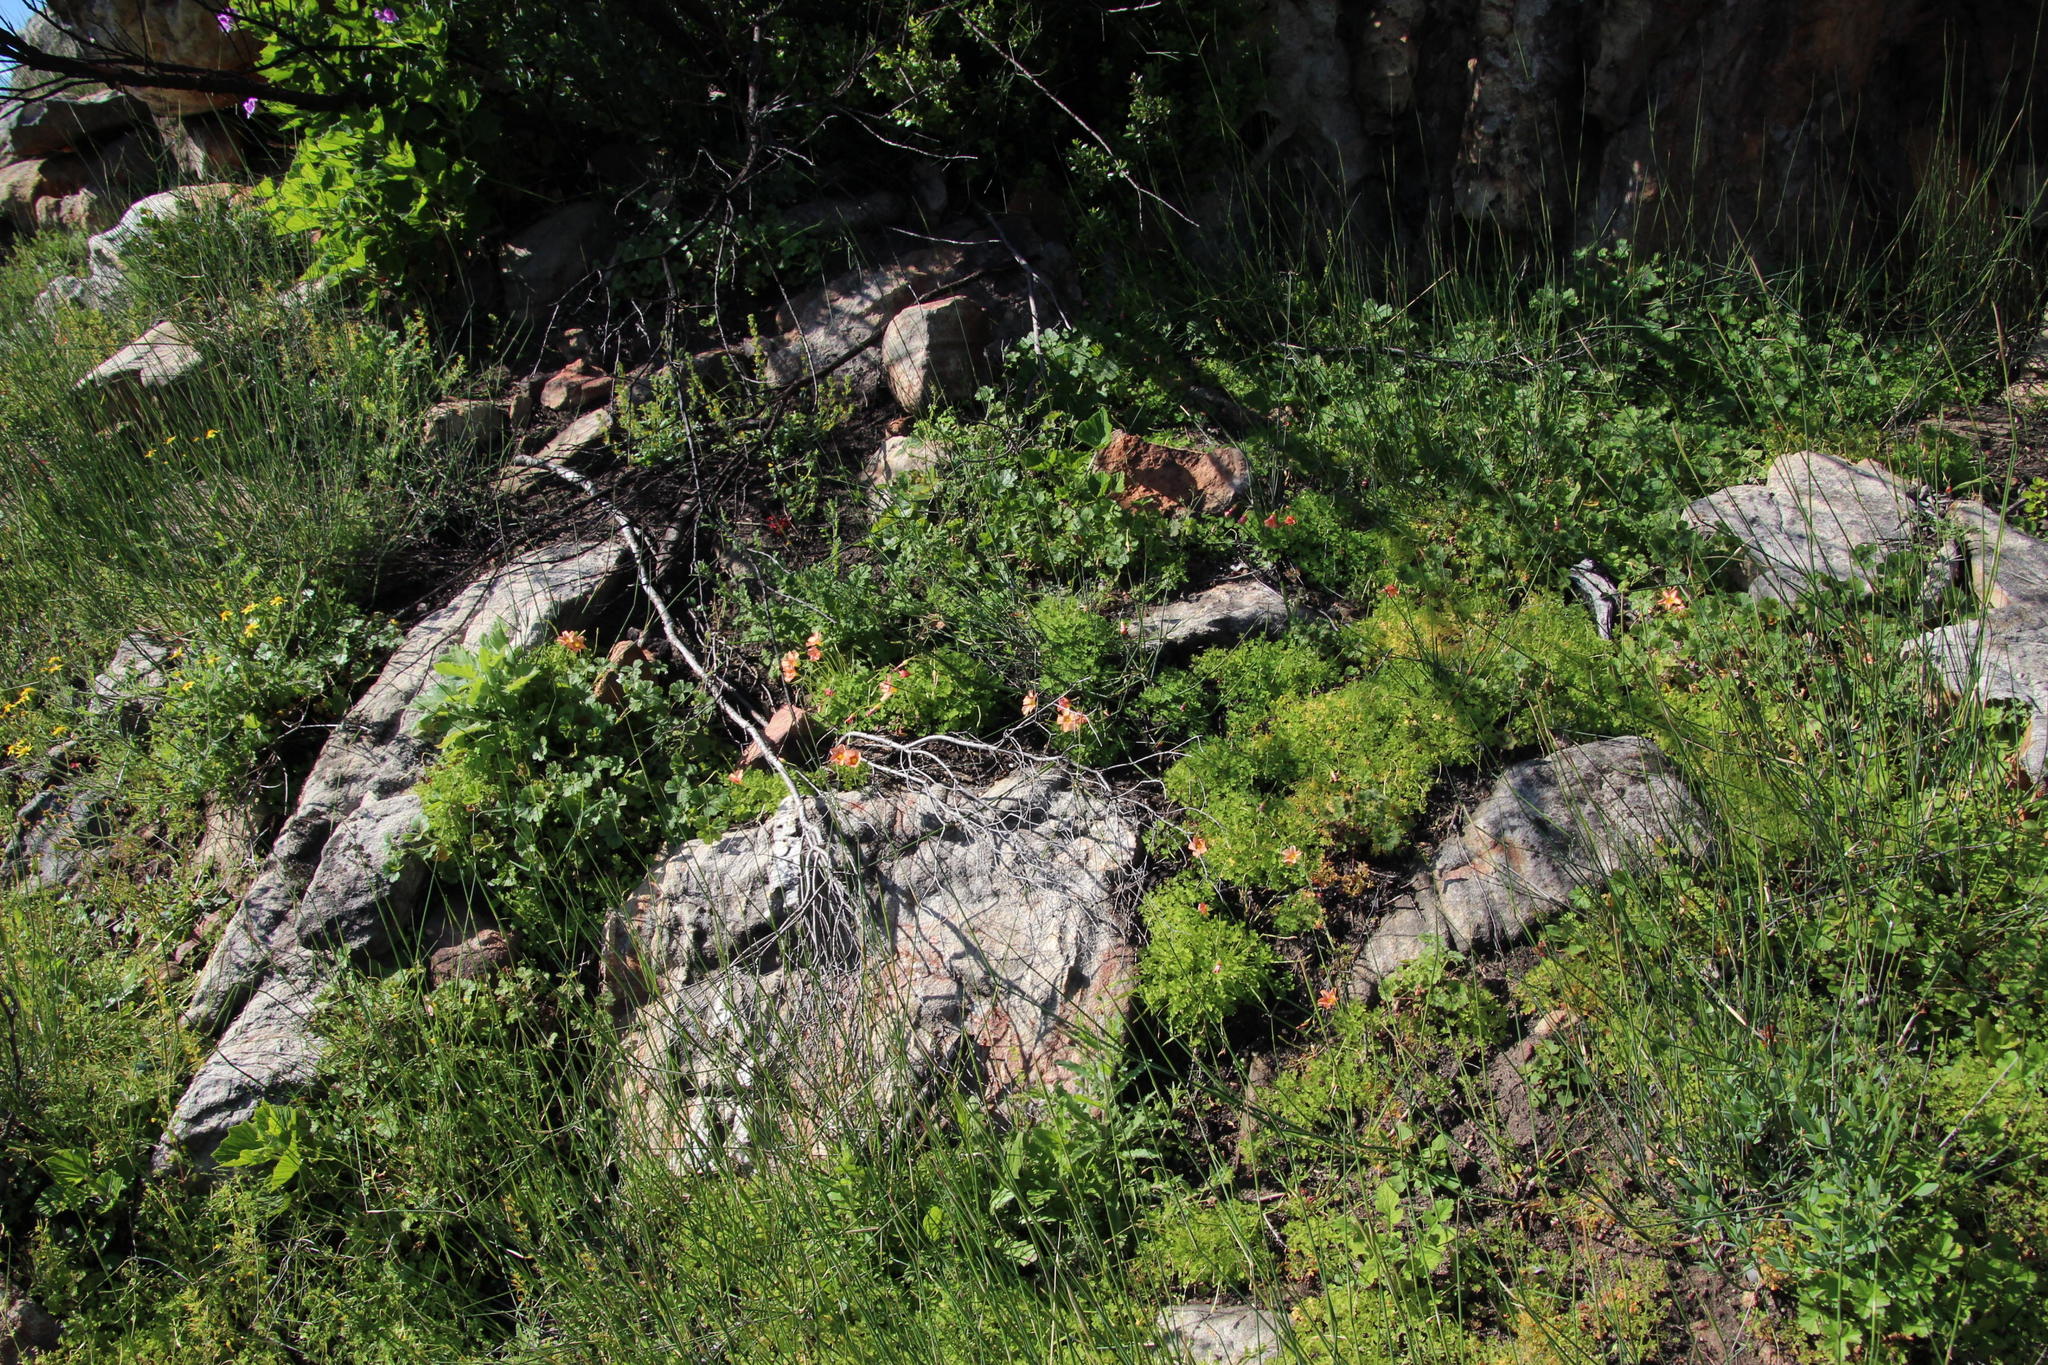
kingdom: Plantae
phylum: Tracheophyta
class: Magnoliopsida
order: Oxalidales
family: Oxalidaceae
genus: Oxalis
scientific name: Oxalis obtusa
